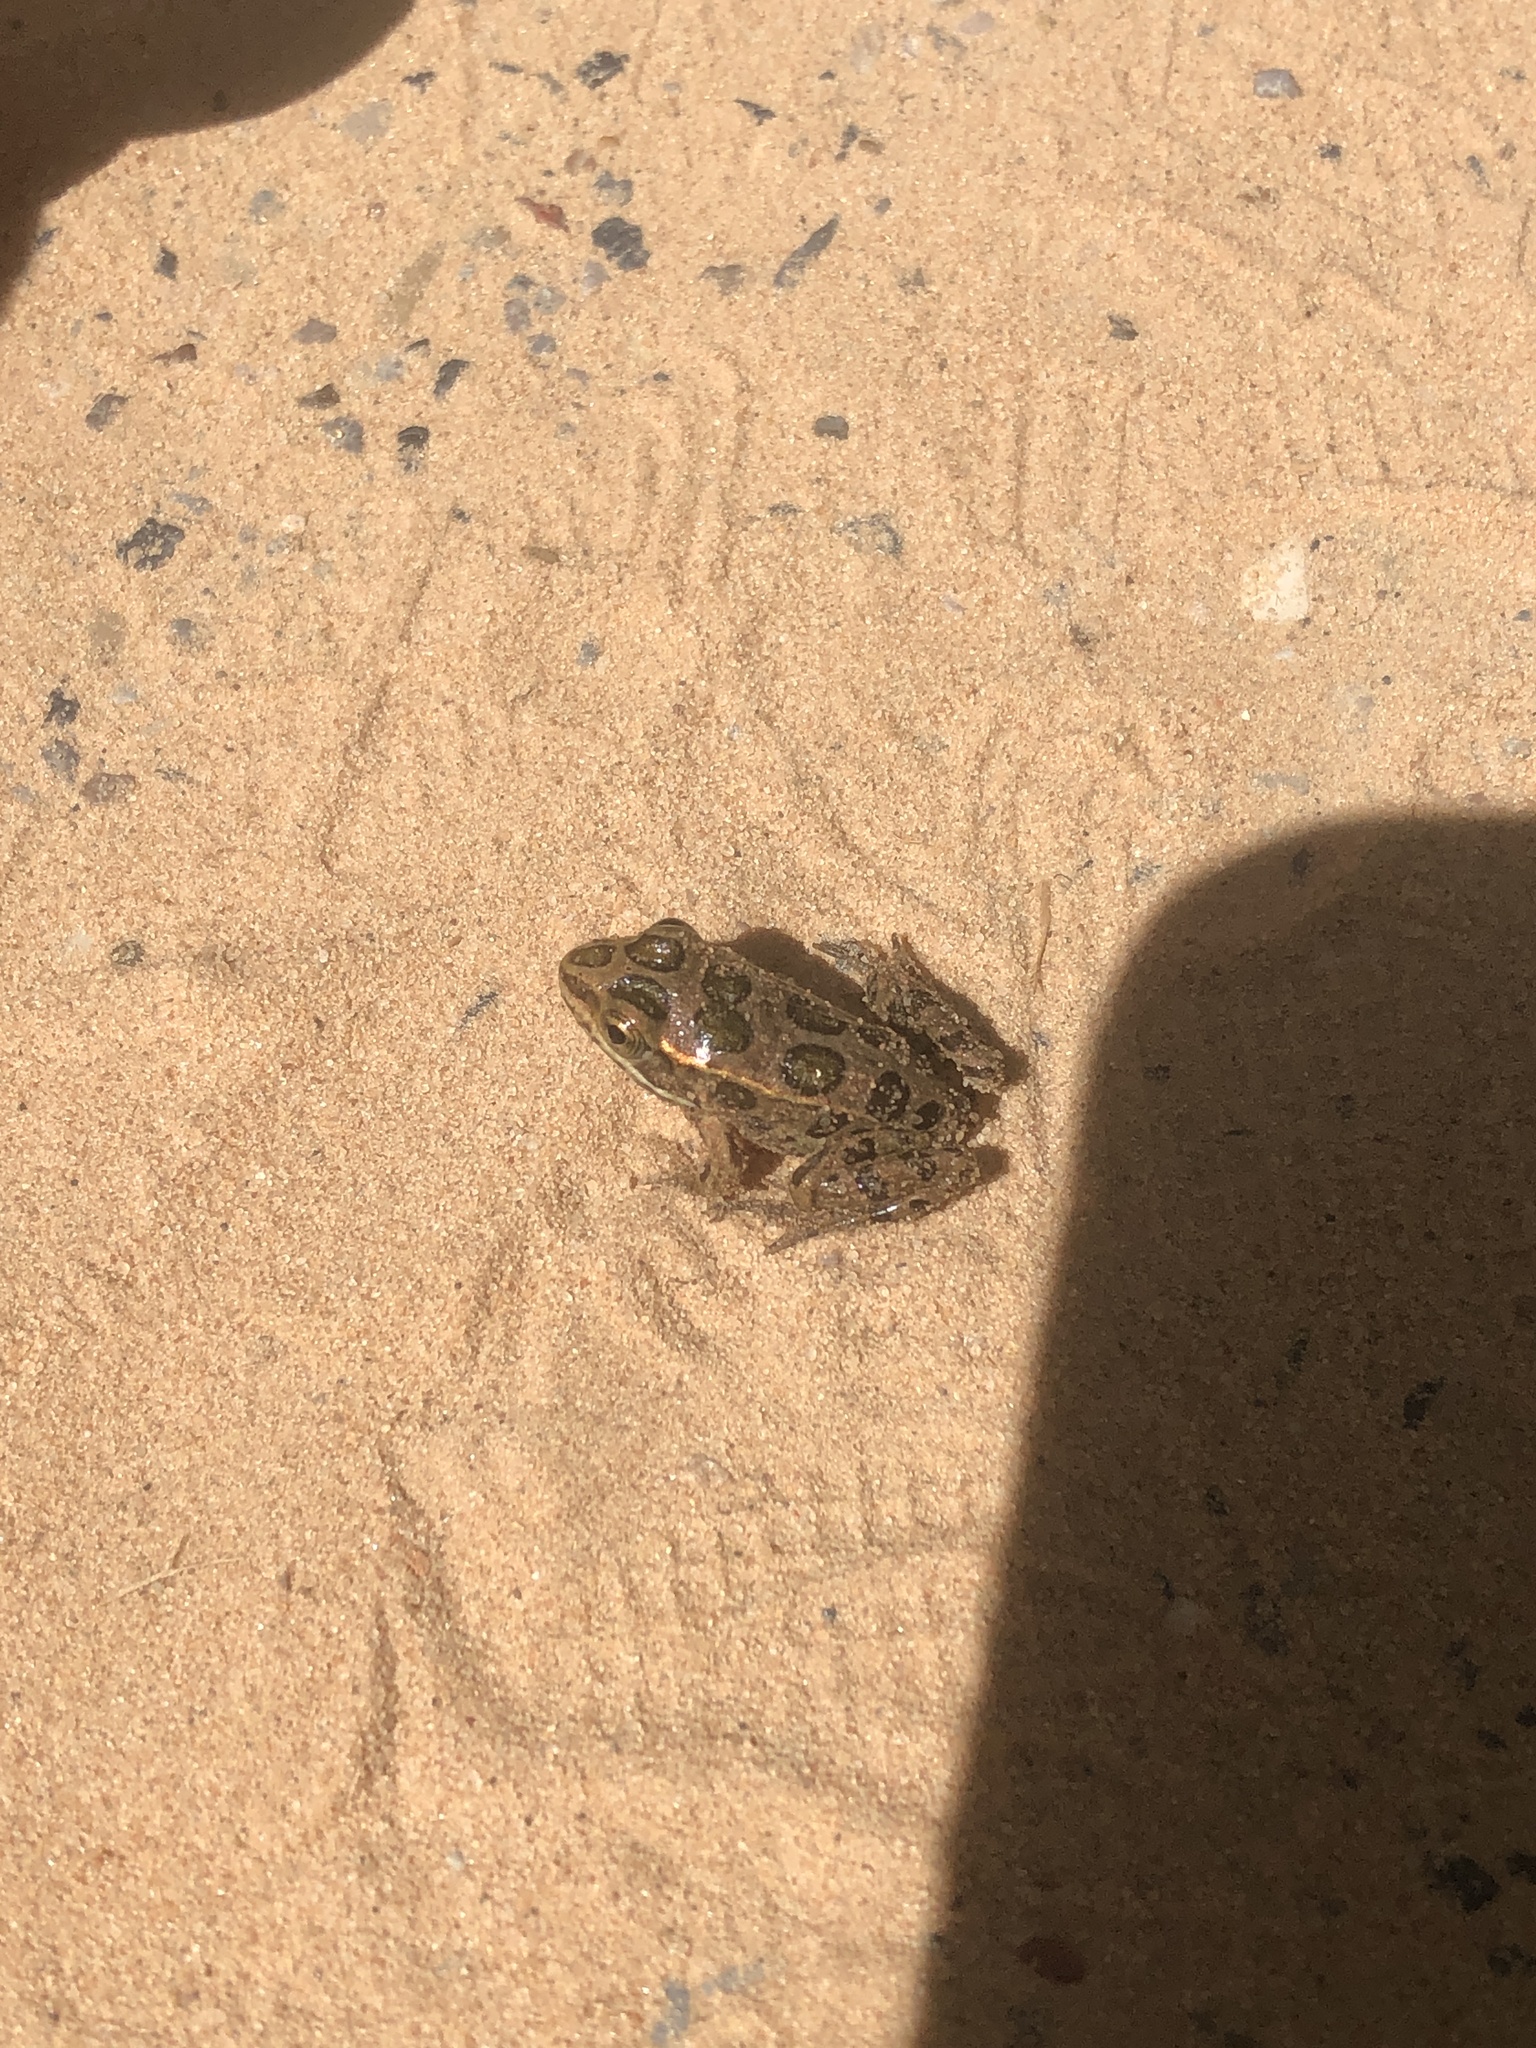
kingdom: Animalia
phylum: Chordata
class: Amphibia
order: Anura
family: Ranidae
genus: Lithobates
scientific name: Lithobates pipiens
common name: Northern leopard frog
